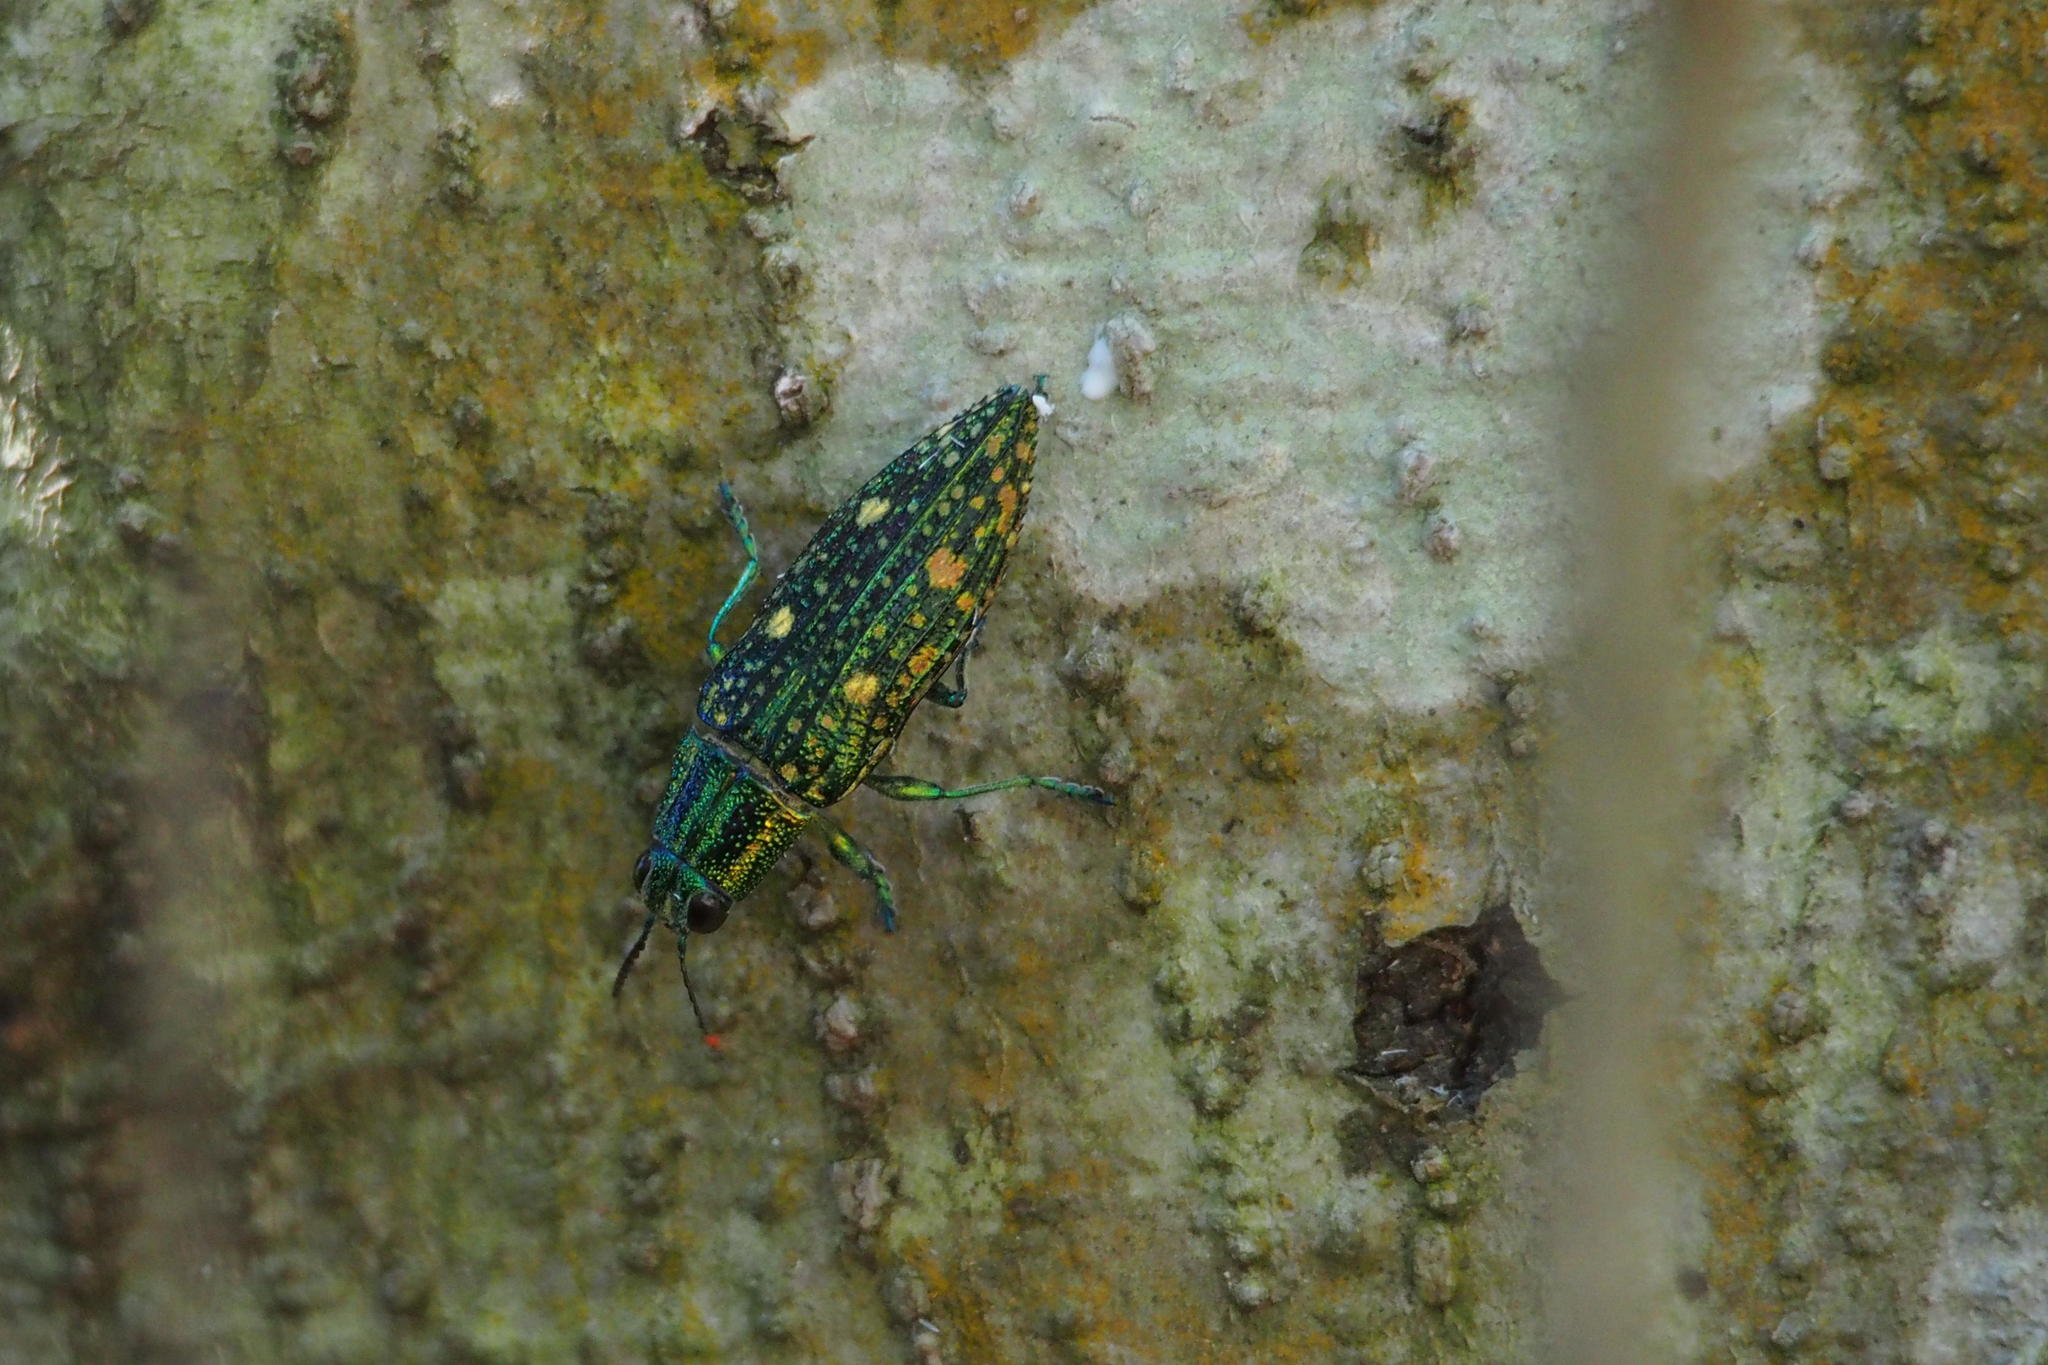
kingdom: Animalia
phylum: Arthropoda
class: Insecta
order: Coleoptera
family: Buprestidae
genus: Nipponobuprestis
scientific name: Nipponobuprestis amabilis
